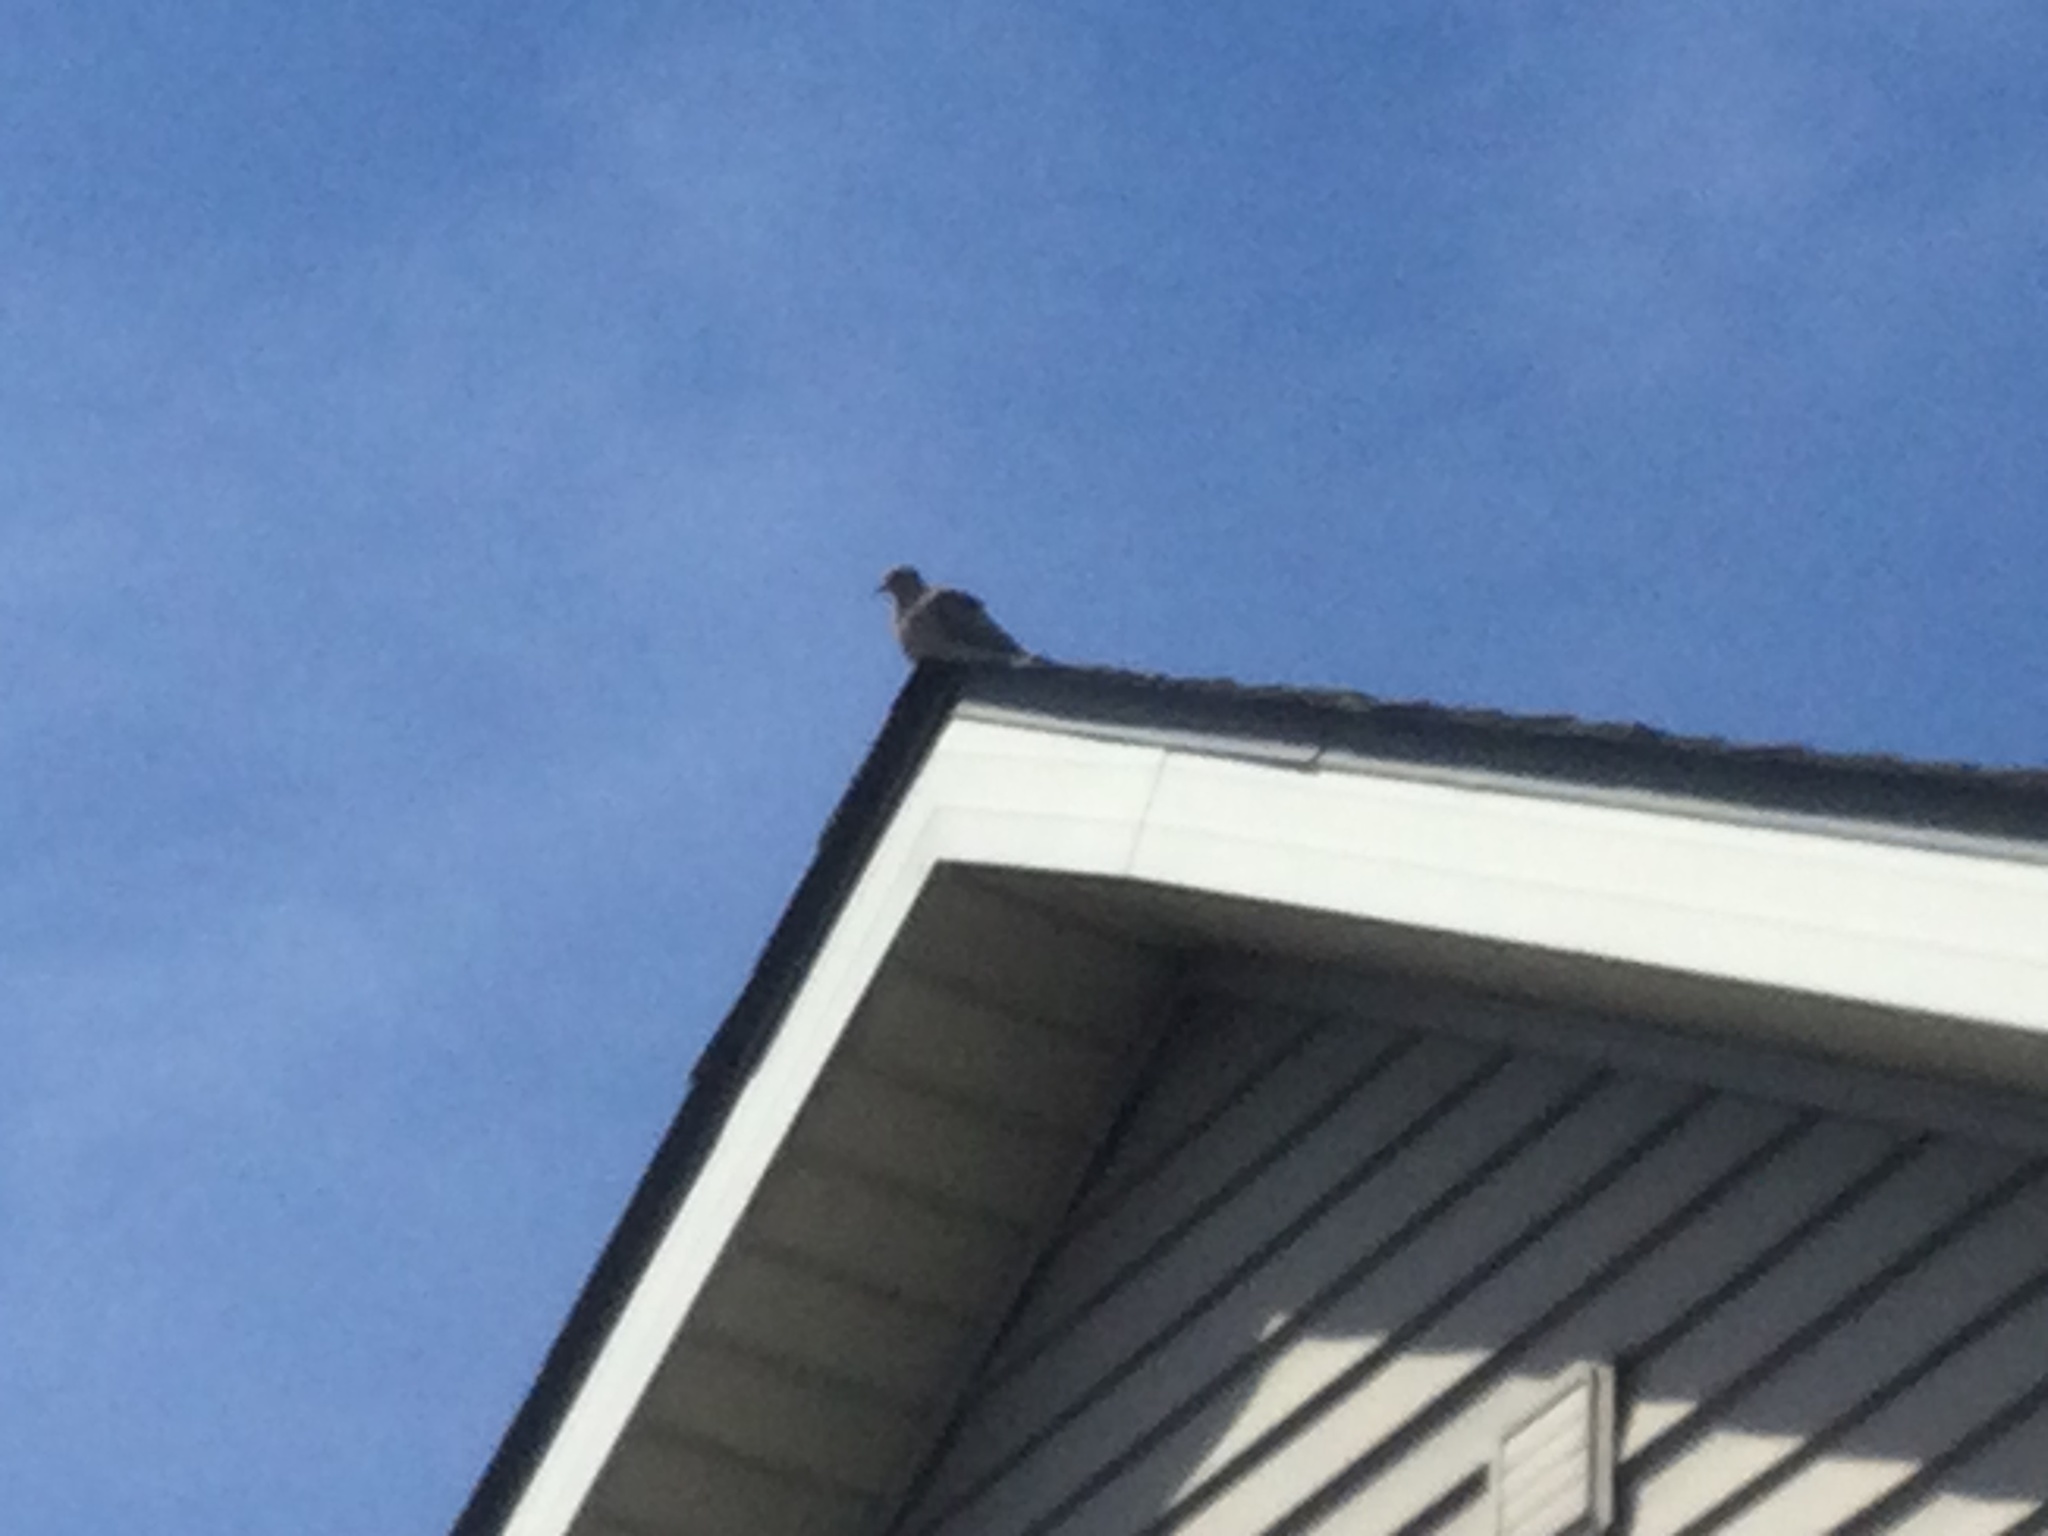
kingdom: Animalia
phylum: Chordata
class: Aves
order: Columbiformes
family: Columbidae
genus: Zenaida
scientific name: Zenaida macroura
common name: Mourning dove
